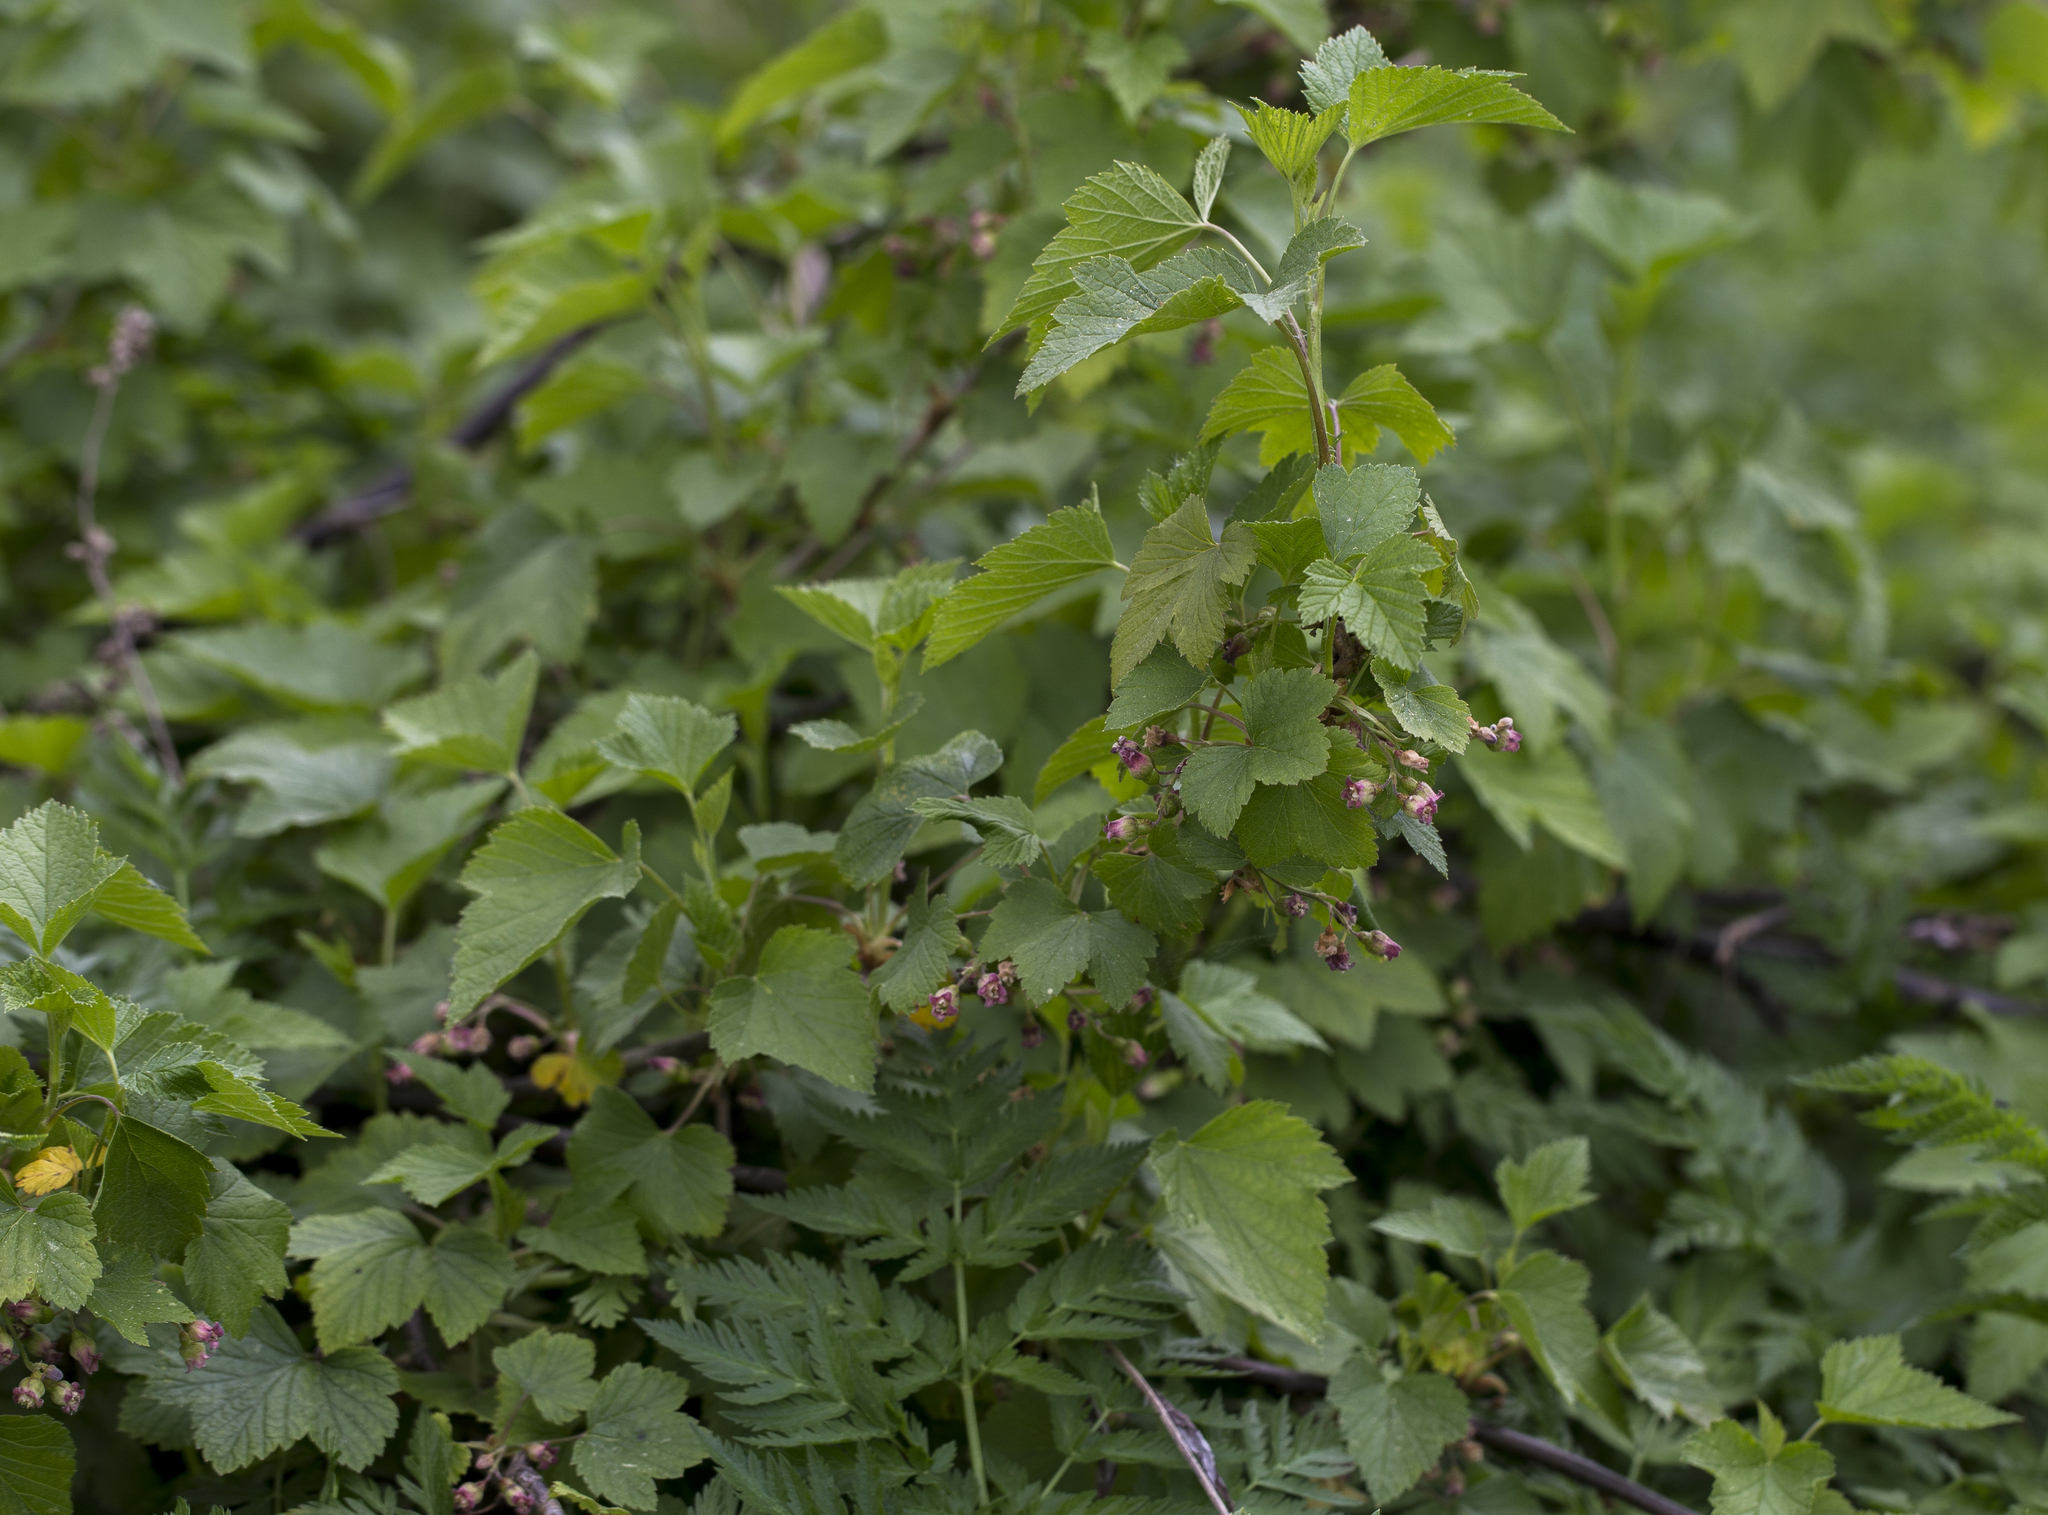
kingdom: Plantae
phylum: Tracheophyta
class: Magnoliopsida
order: Saxifragales
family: Grossulariaceae
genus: Ribes
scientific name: Ribes nigrum
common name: Black currant
